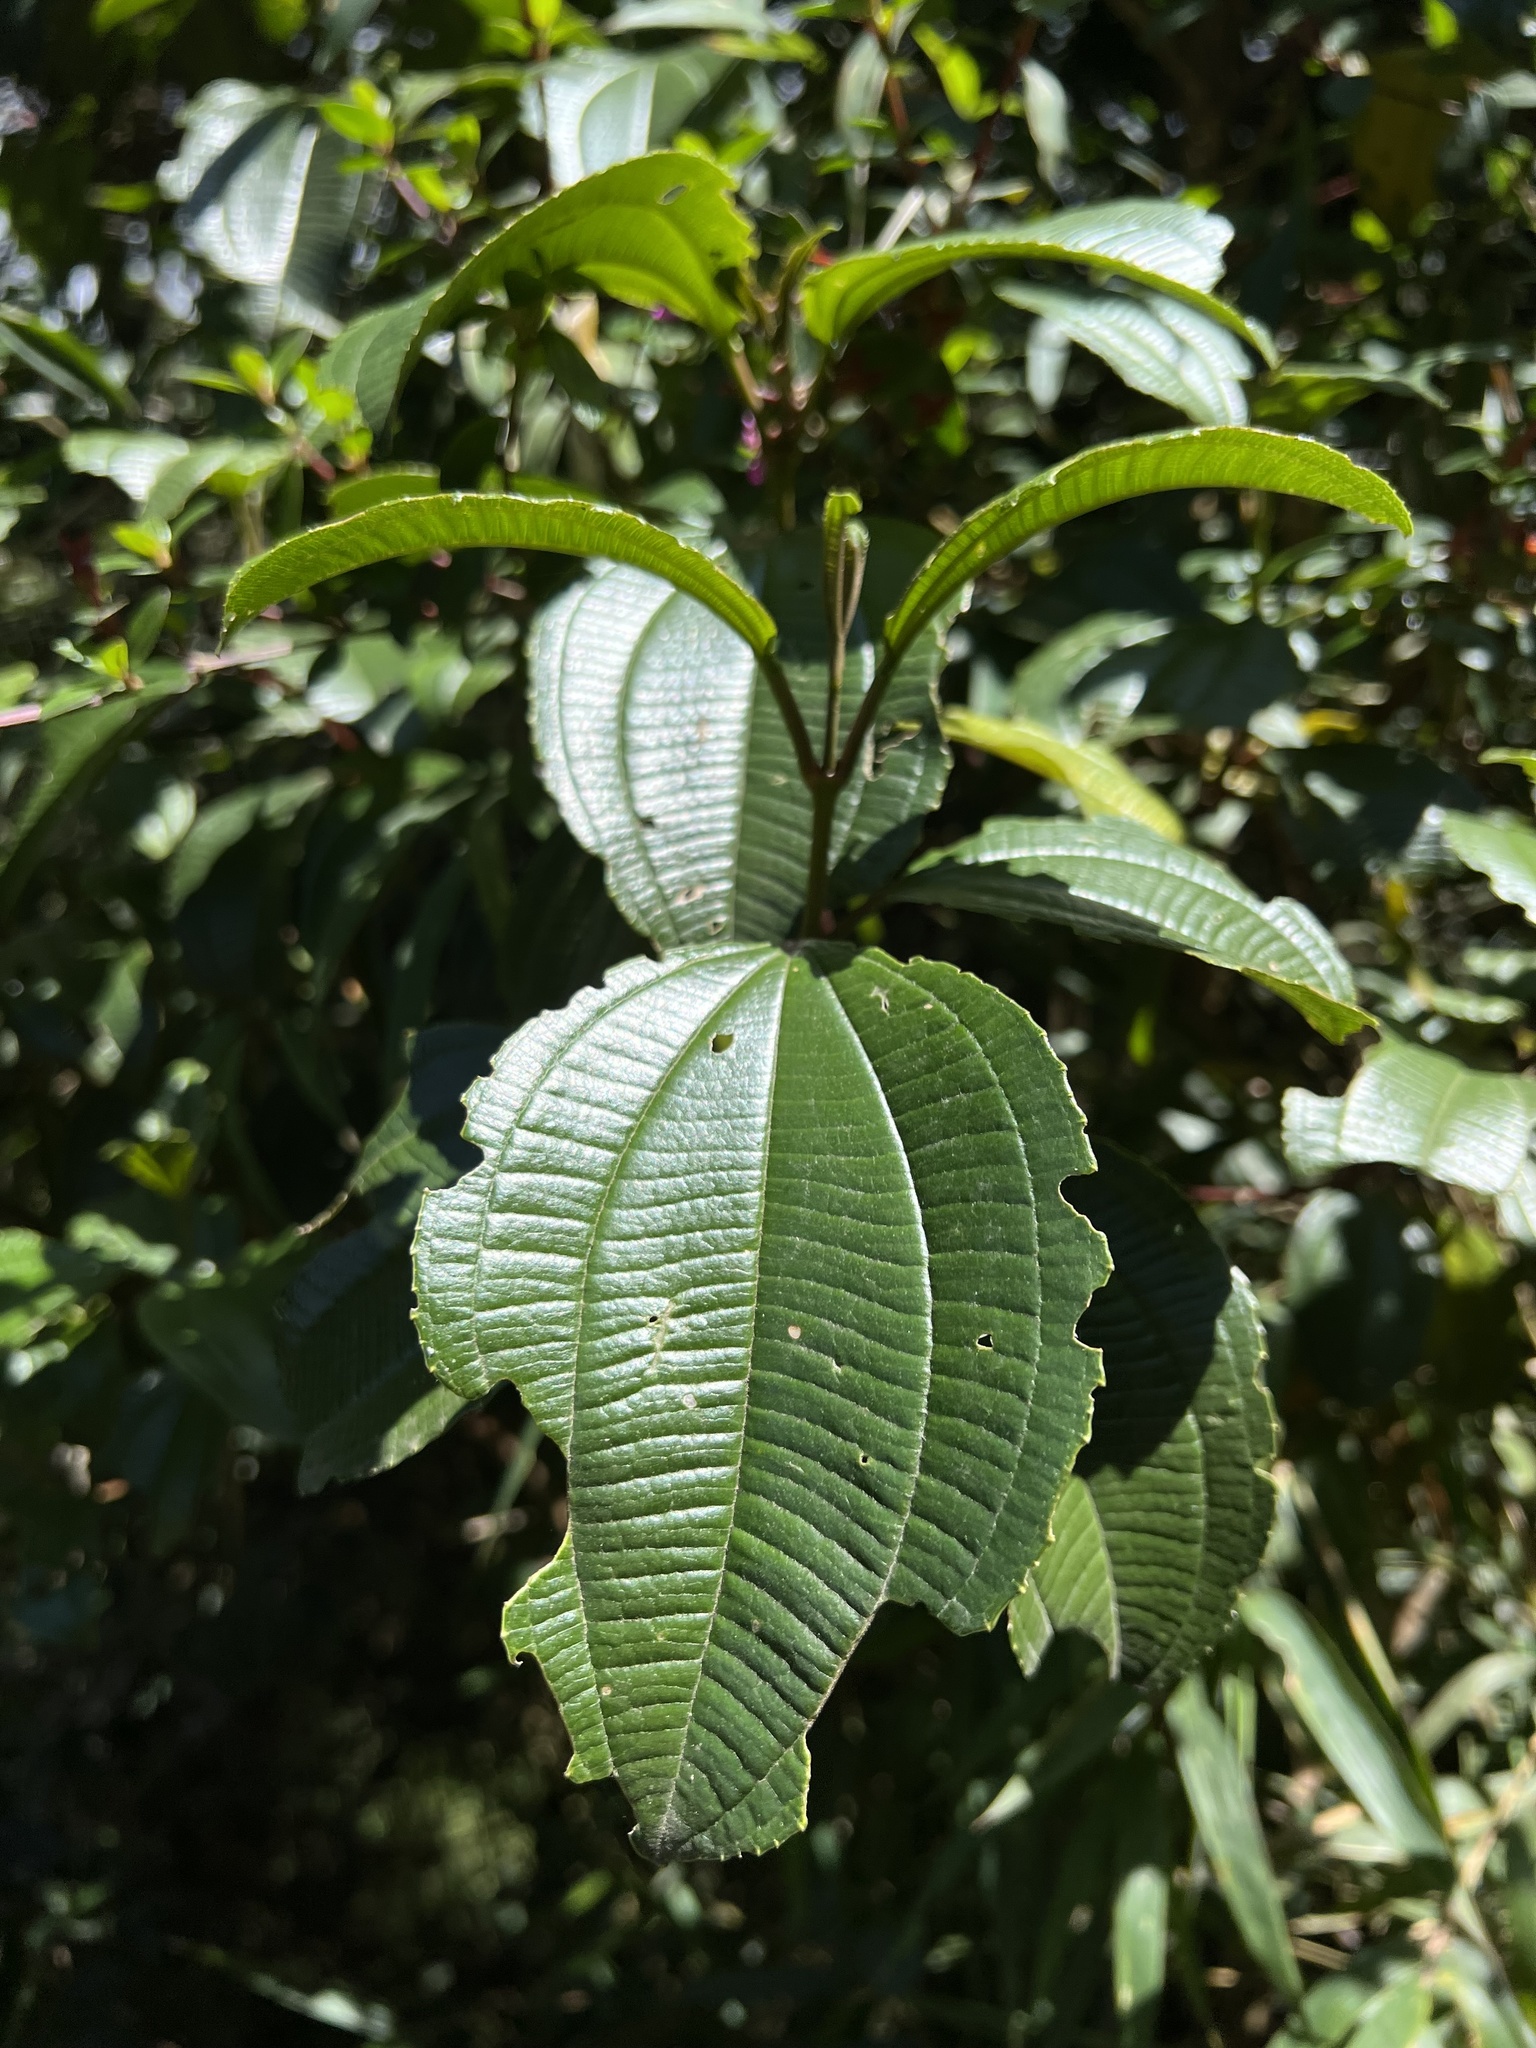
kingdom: Plantae
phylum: Tracheophyta
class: Magnoliopsida
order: Myrtales
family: Melastomataceae
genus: Axinaea
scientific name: Axinaea macrophylla
